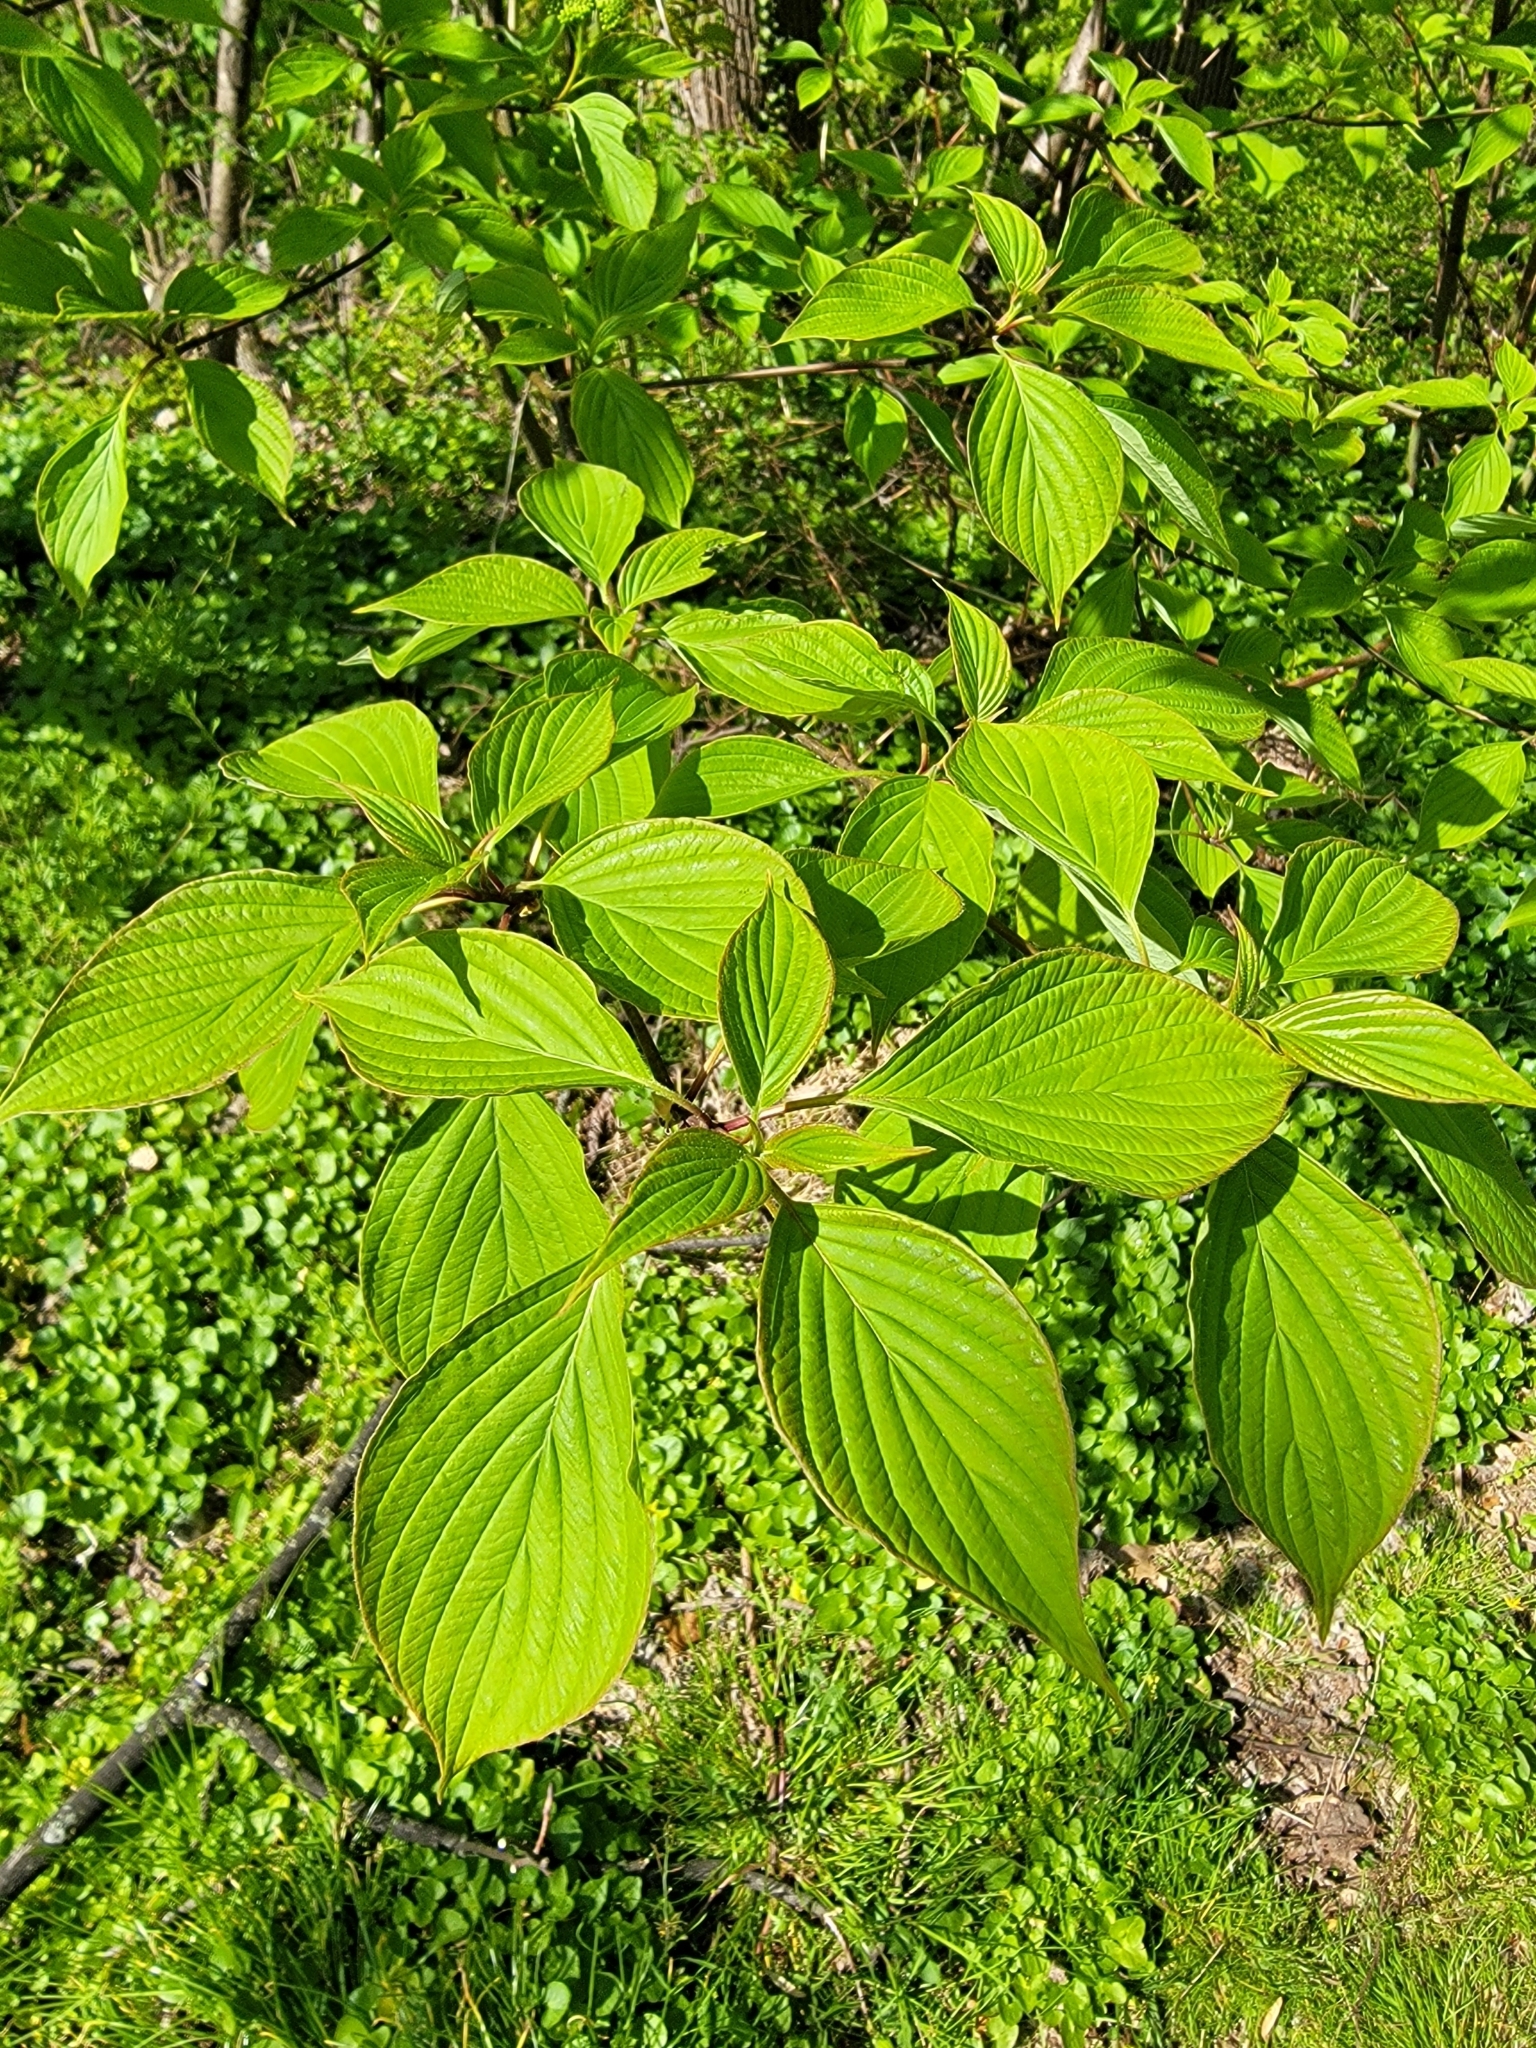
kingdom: Plantae
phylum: Tracheophyta
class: Magnoliopsida
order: Cornales
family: Cornaceae
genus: Cornus
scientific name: Cornus alternifolia
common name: Pagoda dogwood
